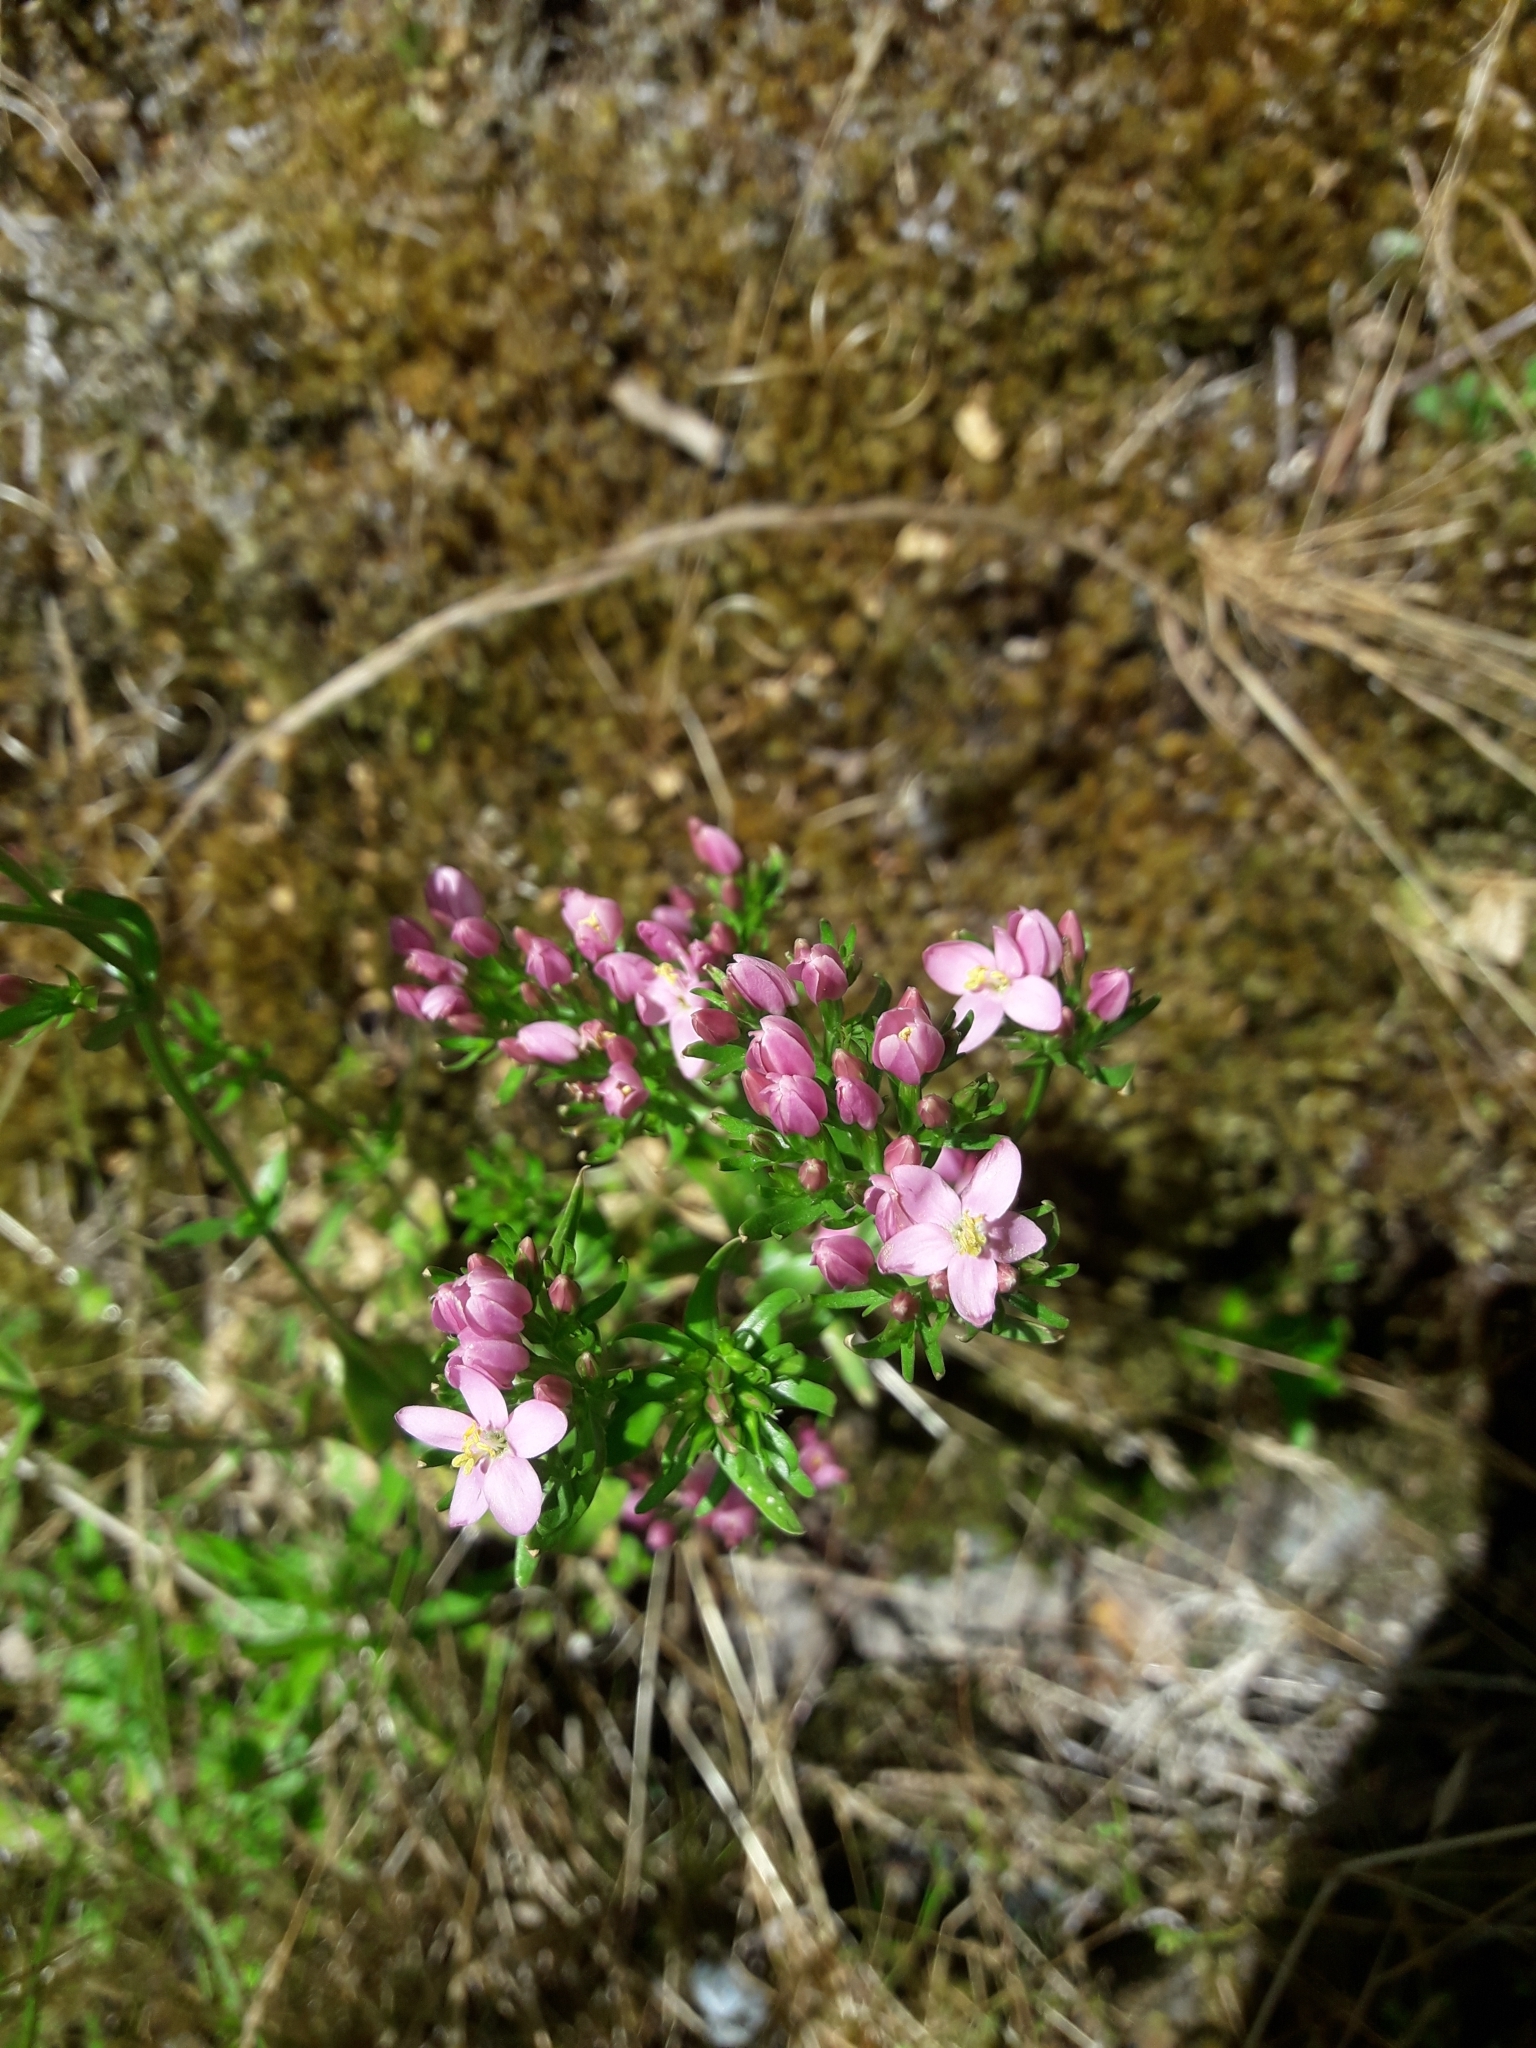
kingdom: Plantae
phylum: Tracheophyta
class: Magnoliopsida
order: Gentianales
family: Gentianaceae
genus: Centaurium
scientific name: Centaurium erythraea
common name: Common centaury
